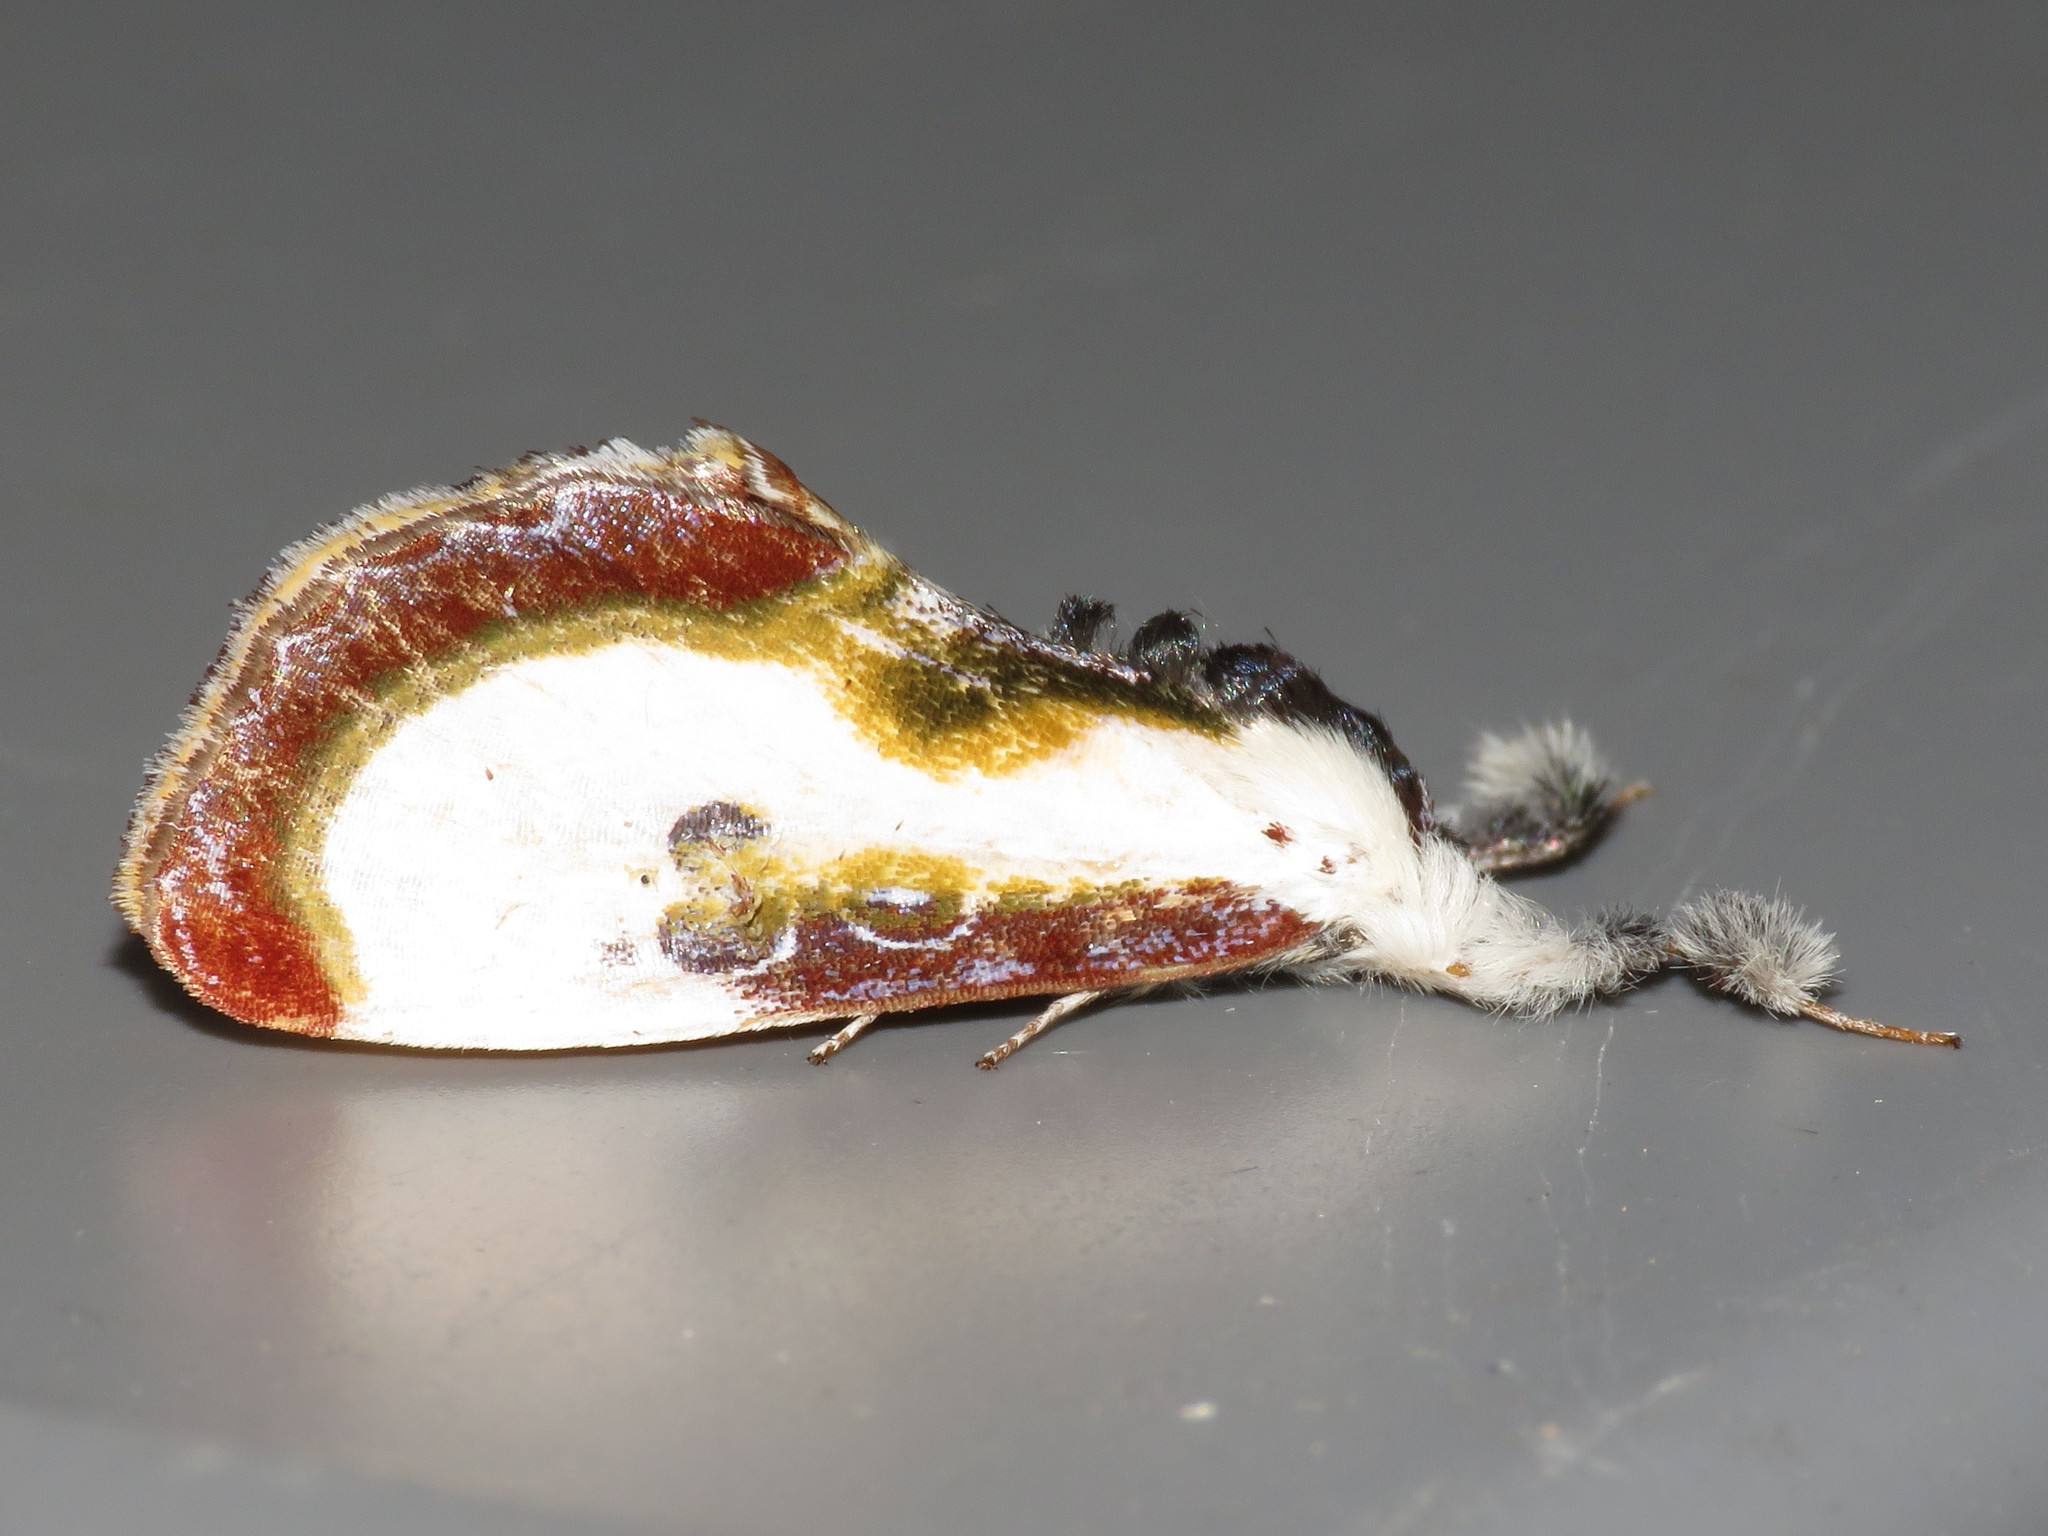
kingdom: Animalia
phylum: Arthropoda
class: Insecta
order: Lepidoptera
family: Noctuidae
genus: Eudryas
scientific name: Eudryas grata
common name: Beautiful wood-nymph
